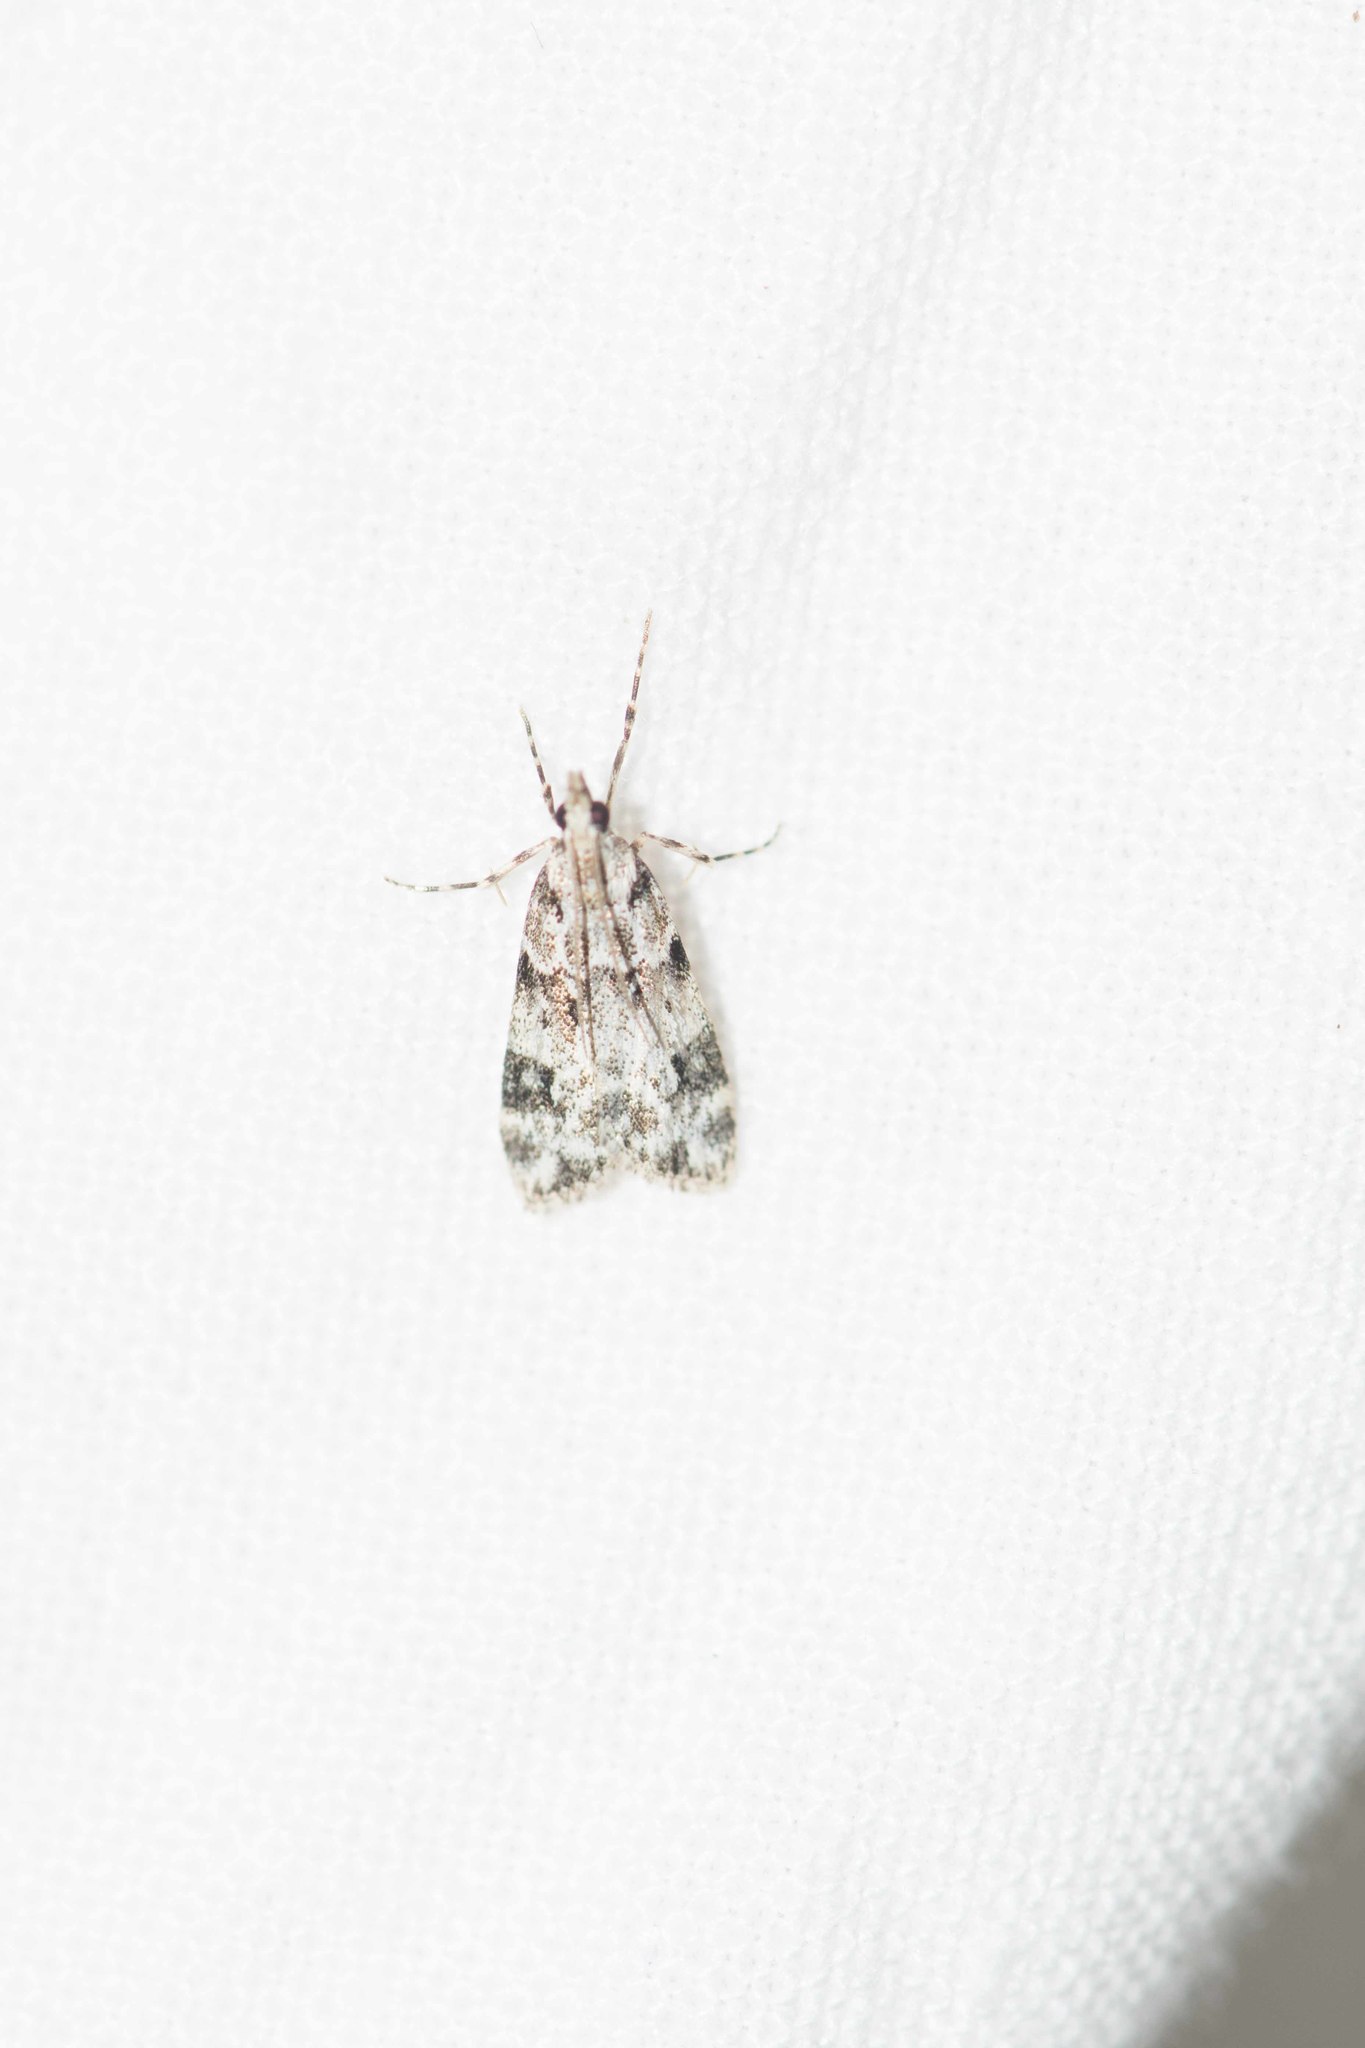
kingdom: Animalia
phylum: Arthropoda
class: Insecta
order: Lepidoptera
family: Crambidae
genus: Eudonia
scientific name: Eudonia delunella
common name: Pied grey
